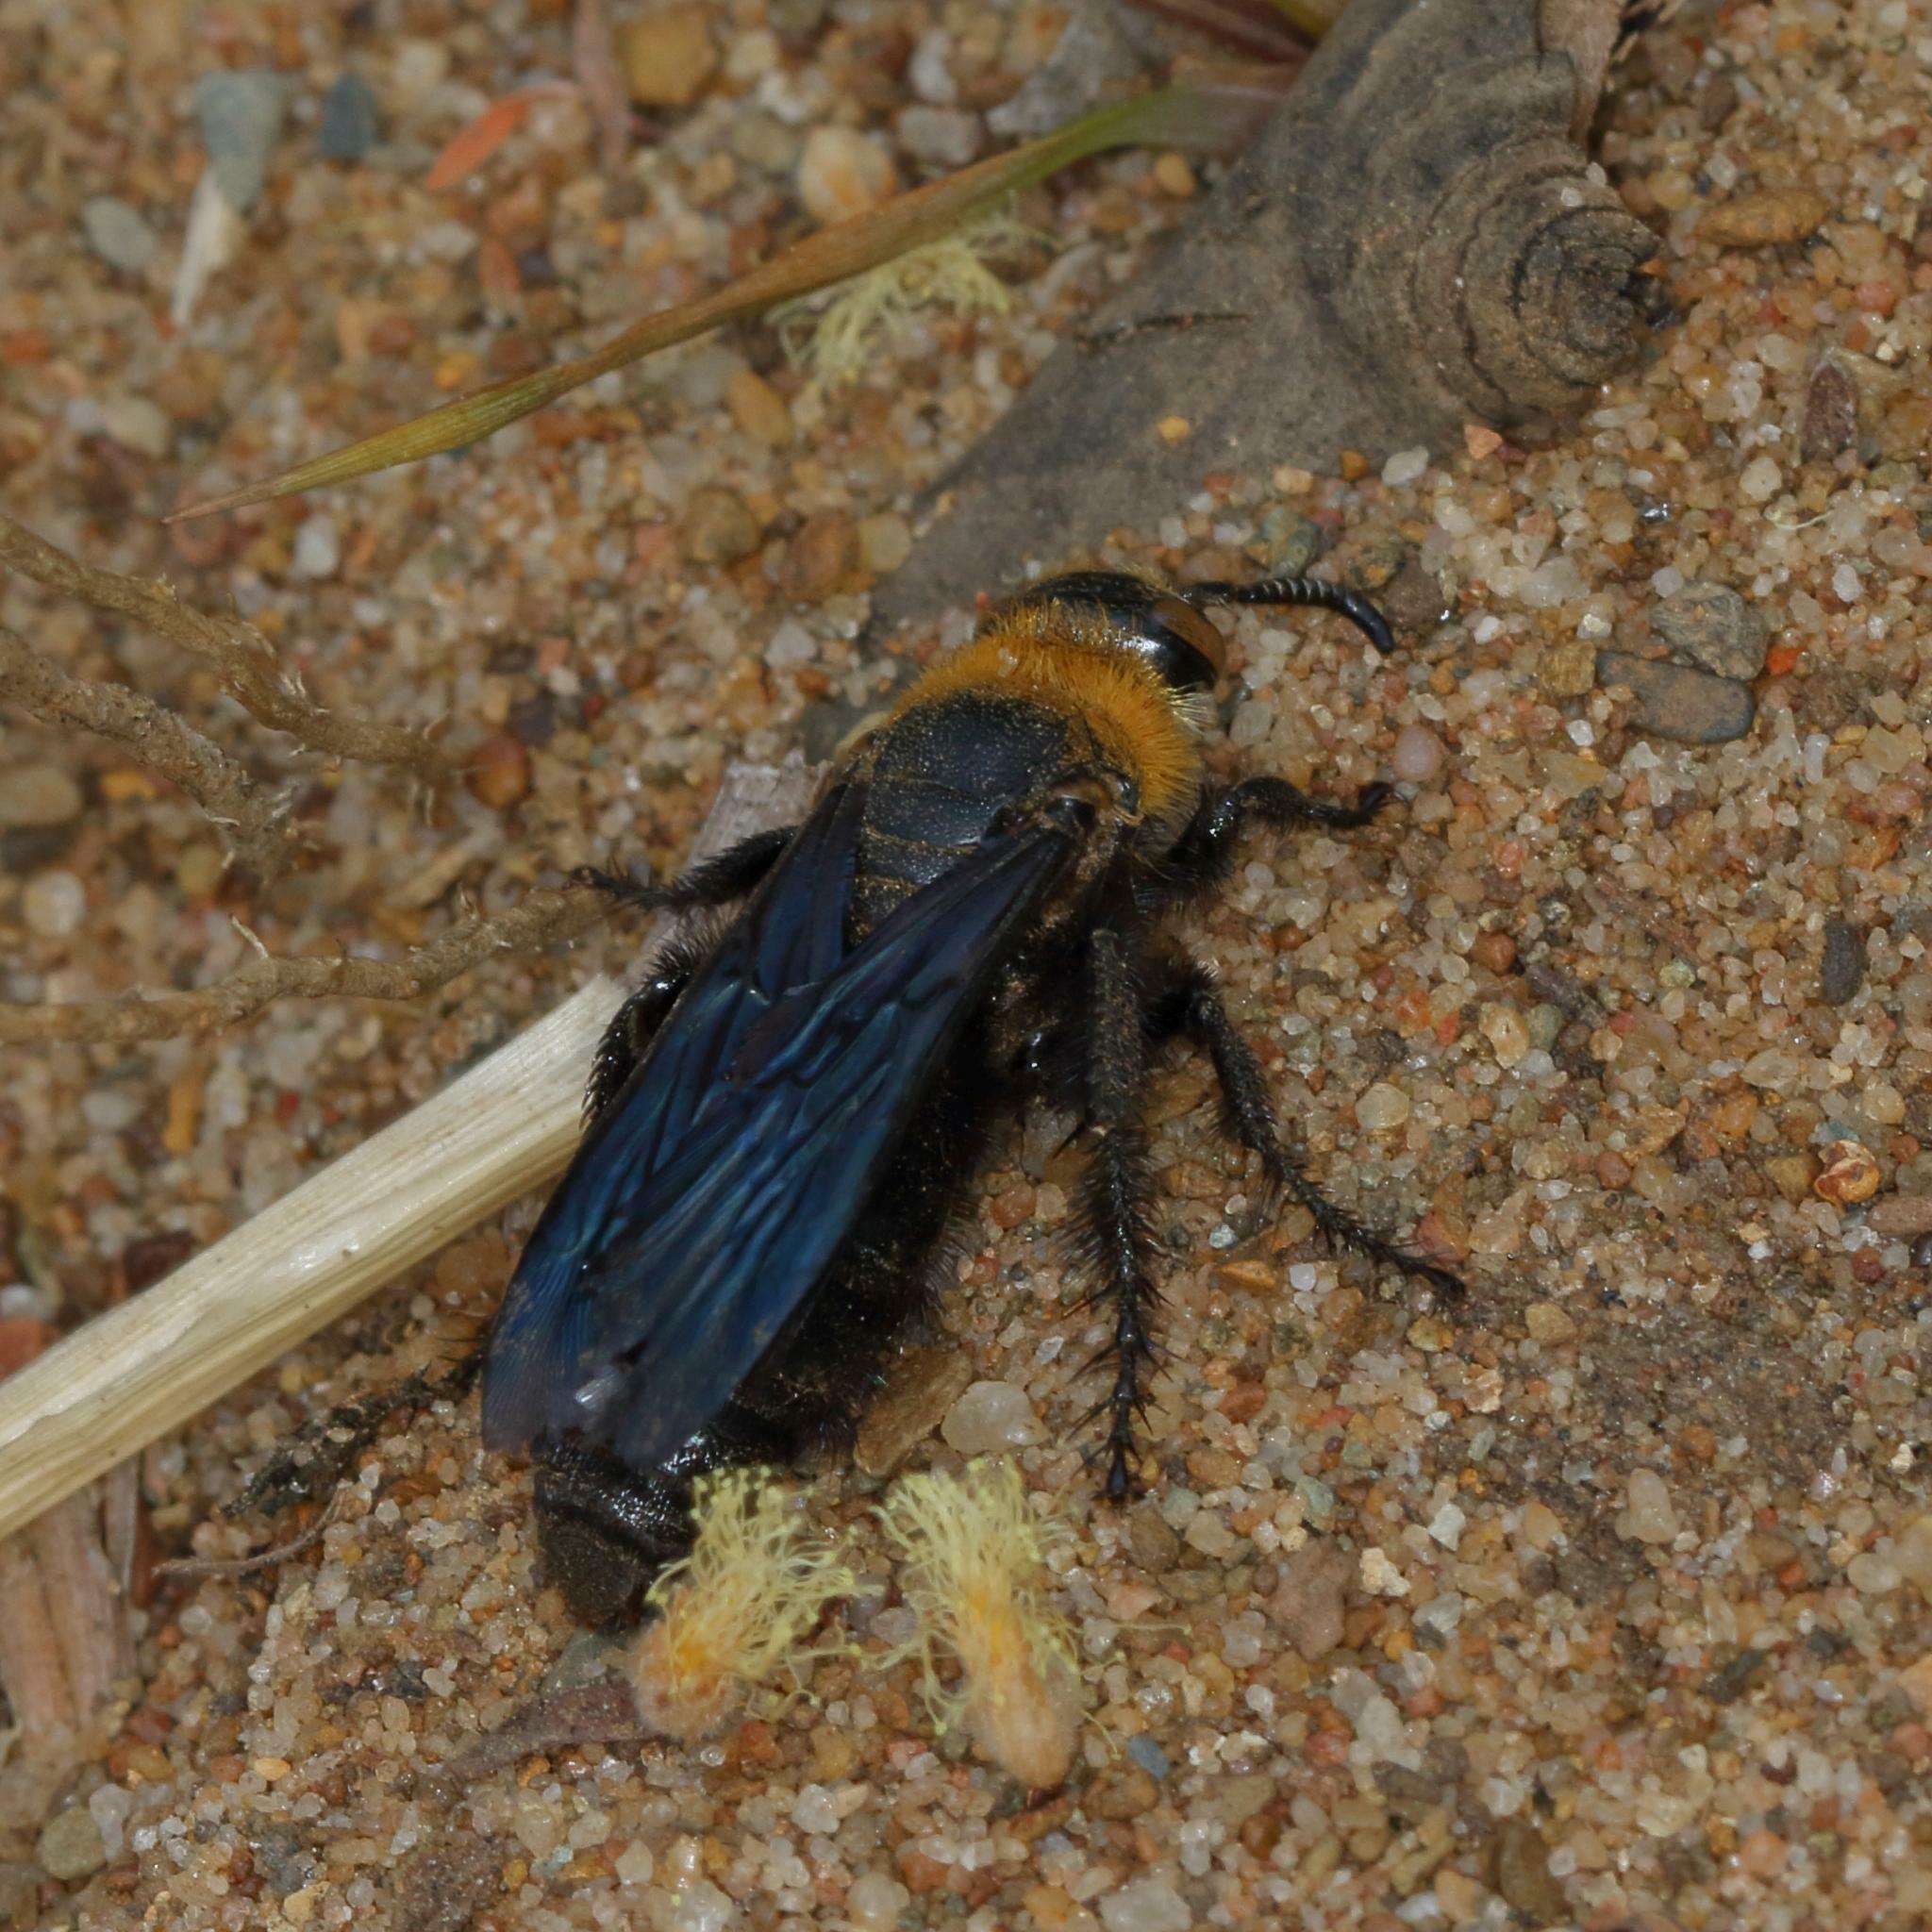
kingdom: Animalia
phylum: Arthropoda
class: Insecta
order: Hymenoptera
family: Scoliidae
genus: Campsomeriella
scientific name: Campsomeriella caelebs
